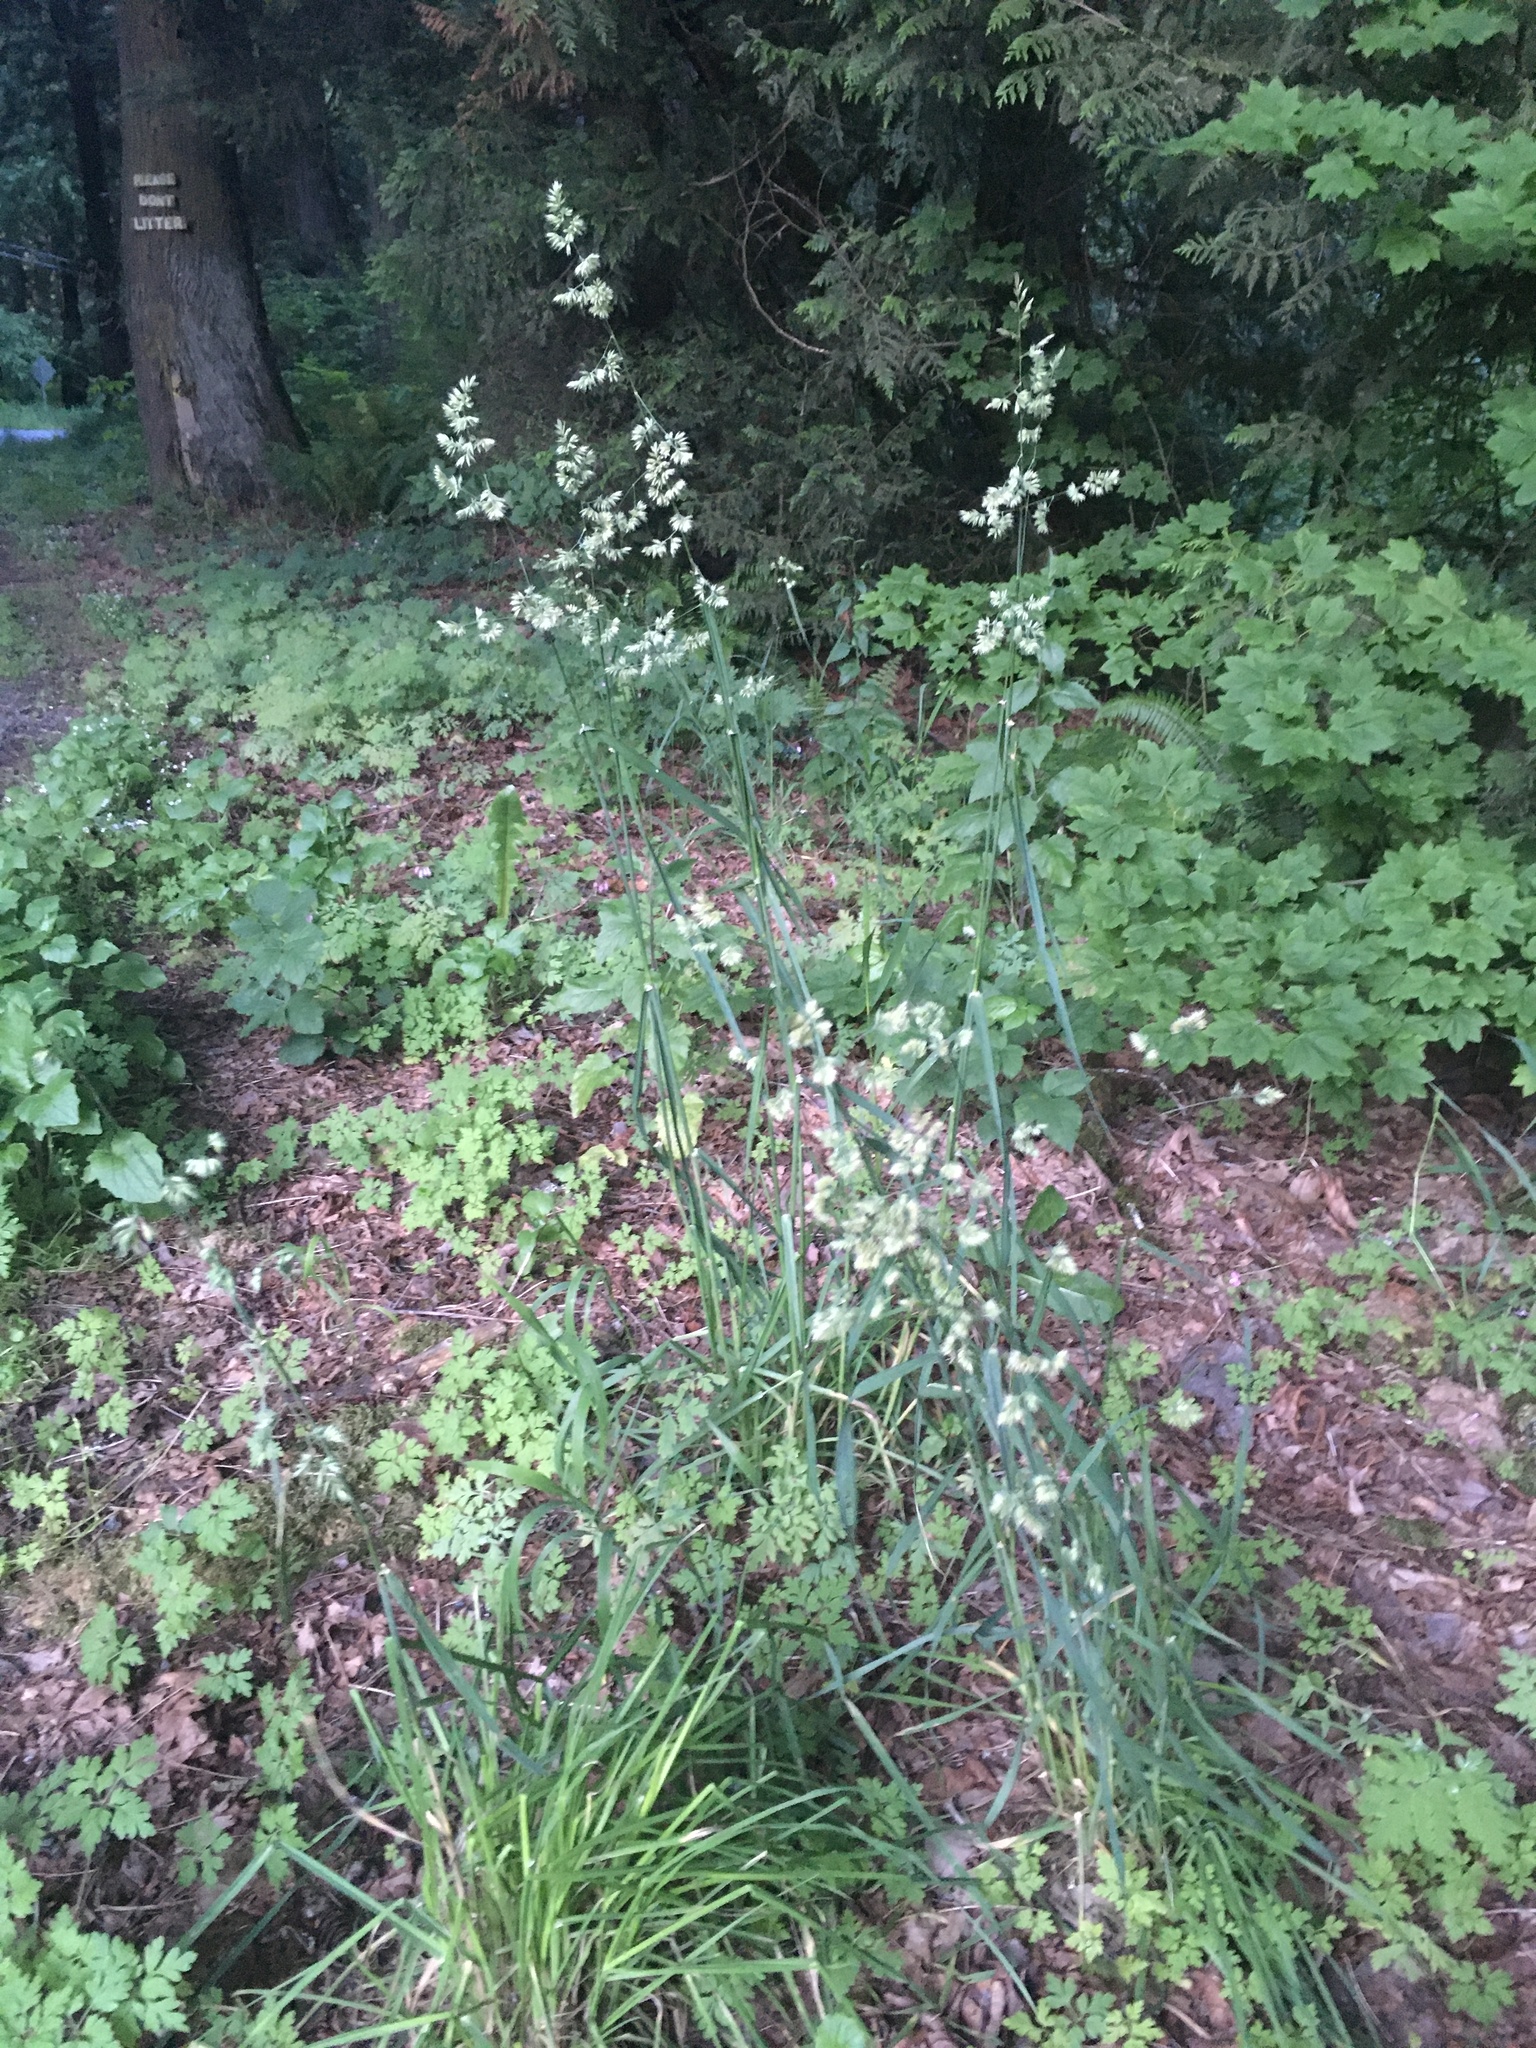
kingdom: Plantae
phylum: Tracheophyta
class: Liliopsida
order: Poales
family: Poaceae
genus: Dactylis
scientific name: Dactylis glomerata
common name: Orchardgrass
